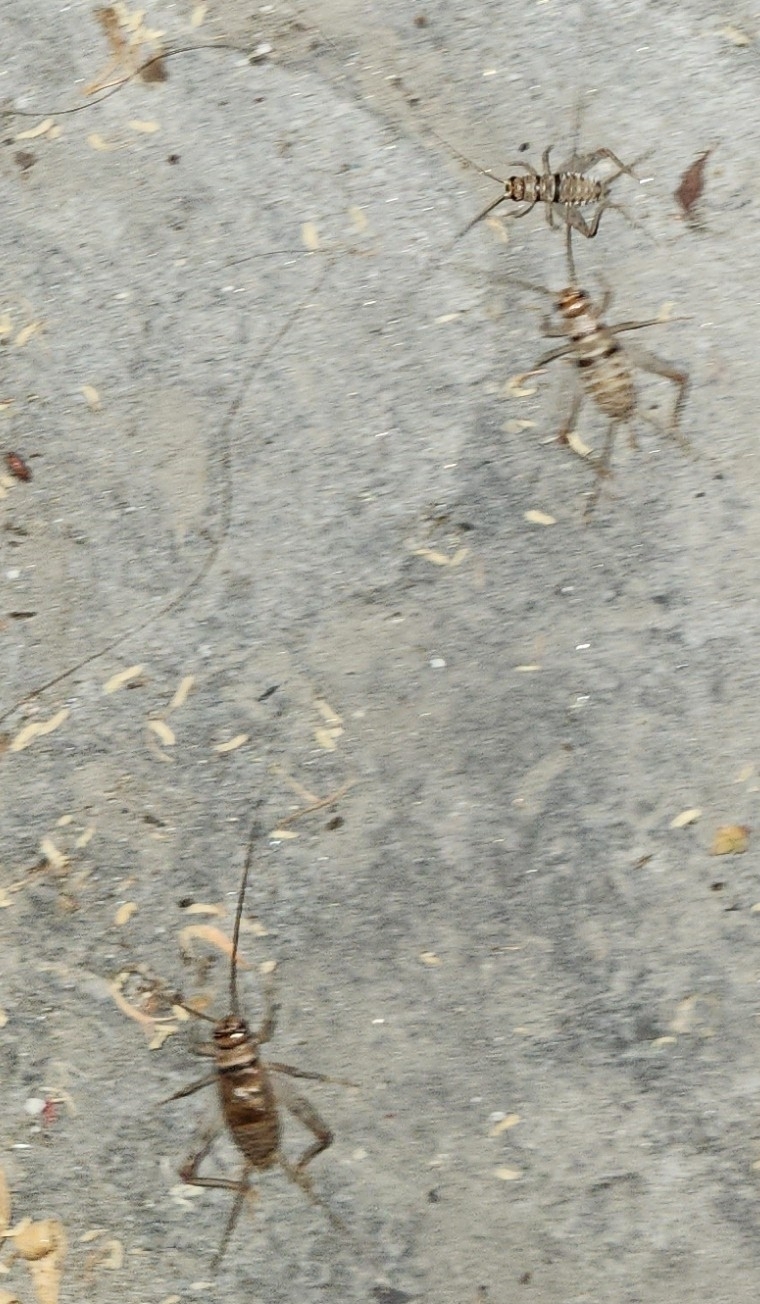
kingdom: Animalia
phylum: Arthropoda
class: Insecta
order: Orthoptera
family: Gryllidae
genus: Gryllodes
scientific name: Gryllodes sigillatus
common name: Tropical house cricket
